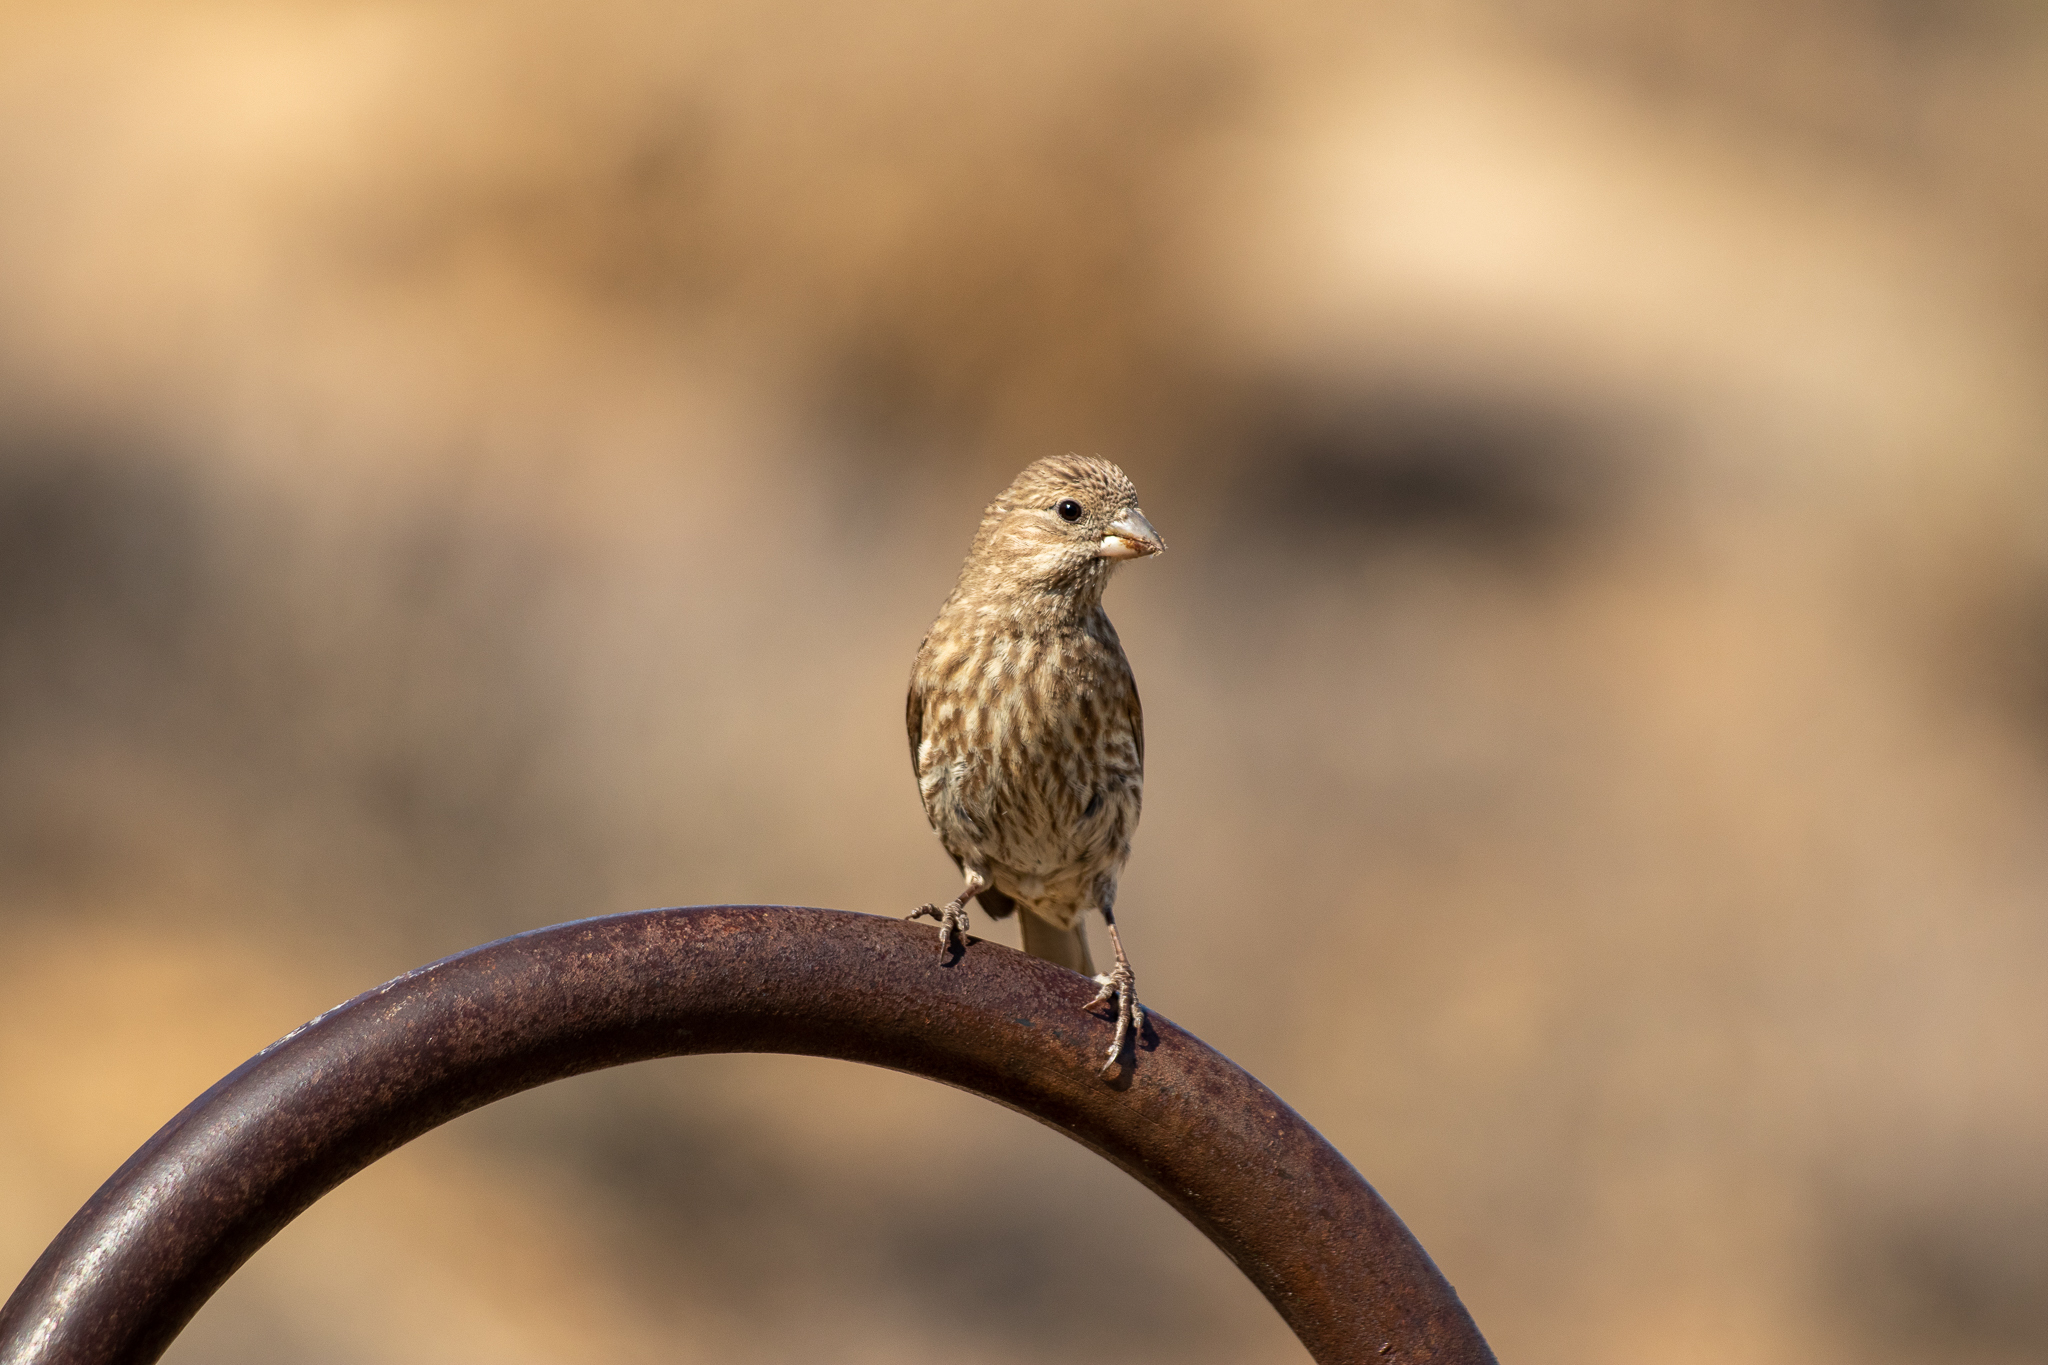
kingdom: Animalia
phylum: Chordata
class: Aves
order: Passeriformes
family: Fringillidae
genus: Haemorhous
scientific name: Haemorhous mexicanus
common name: House finch
